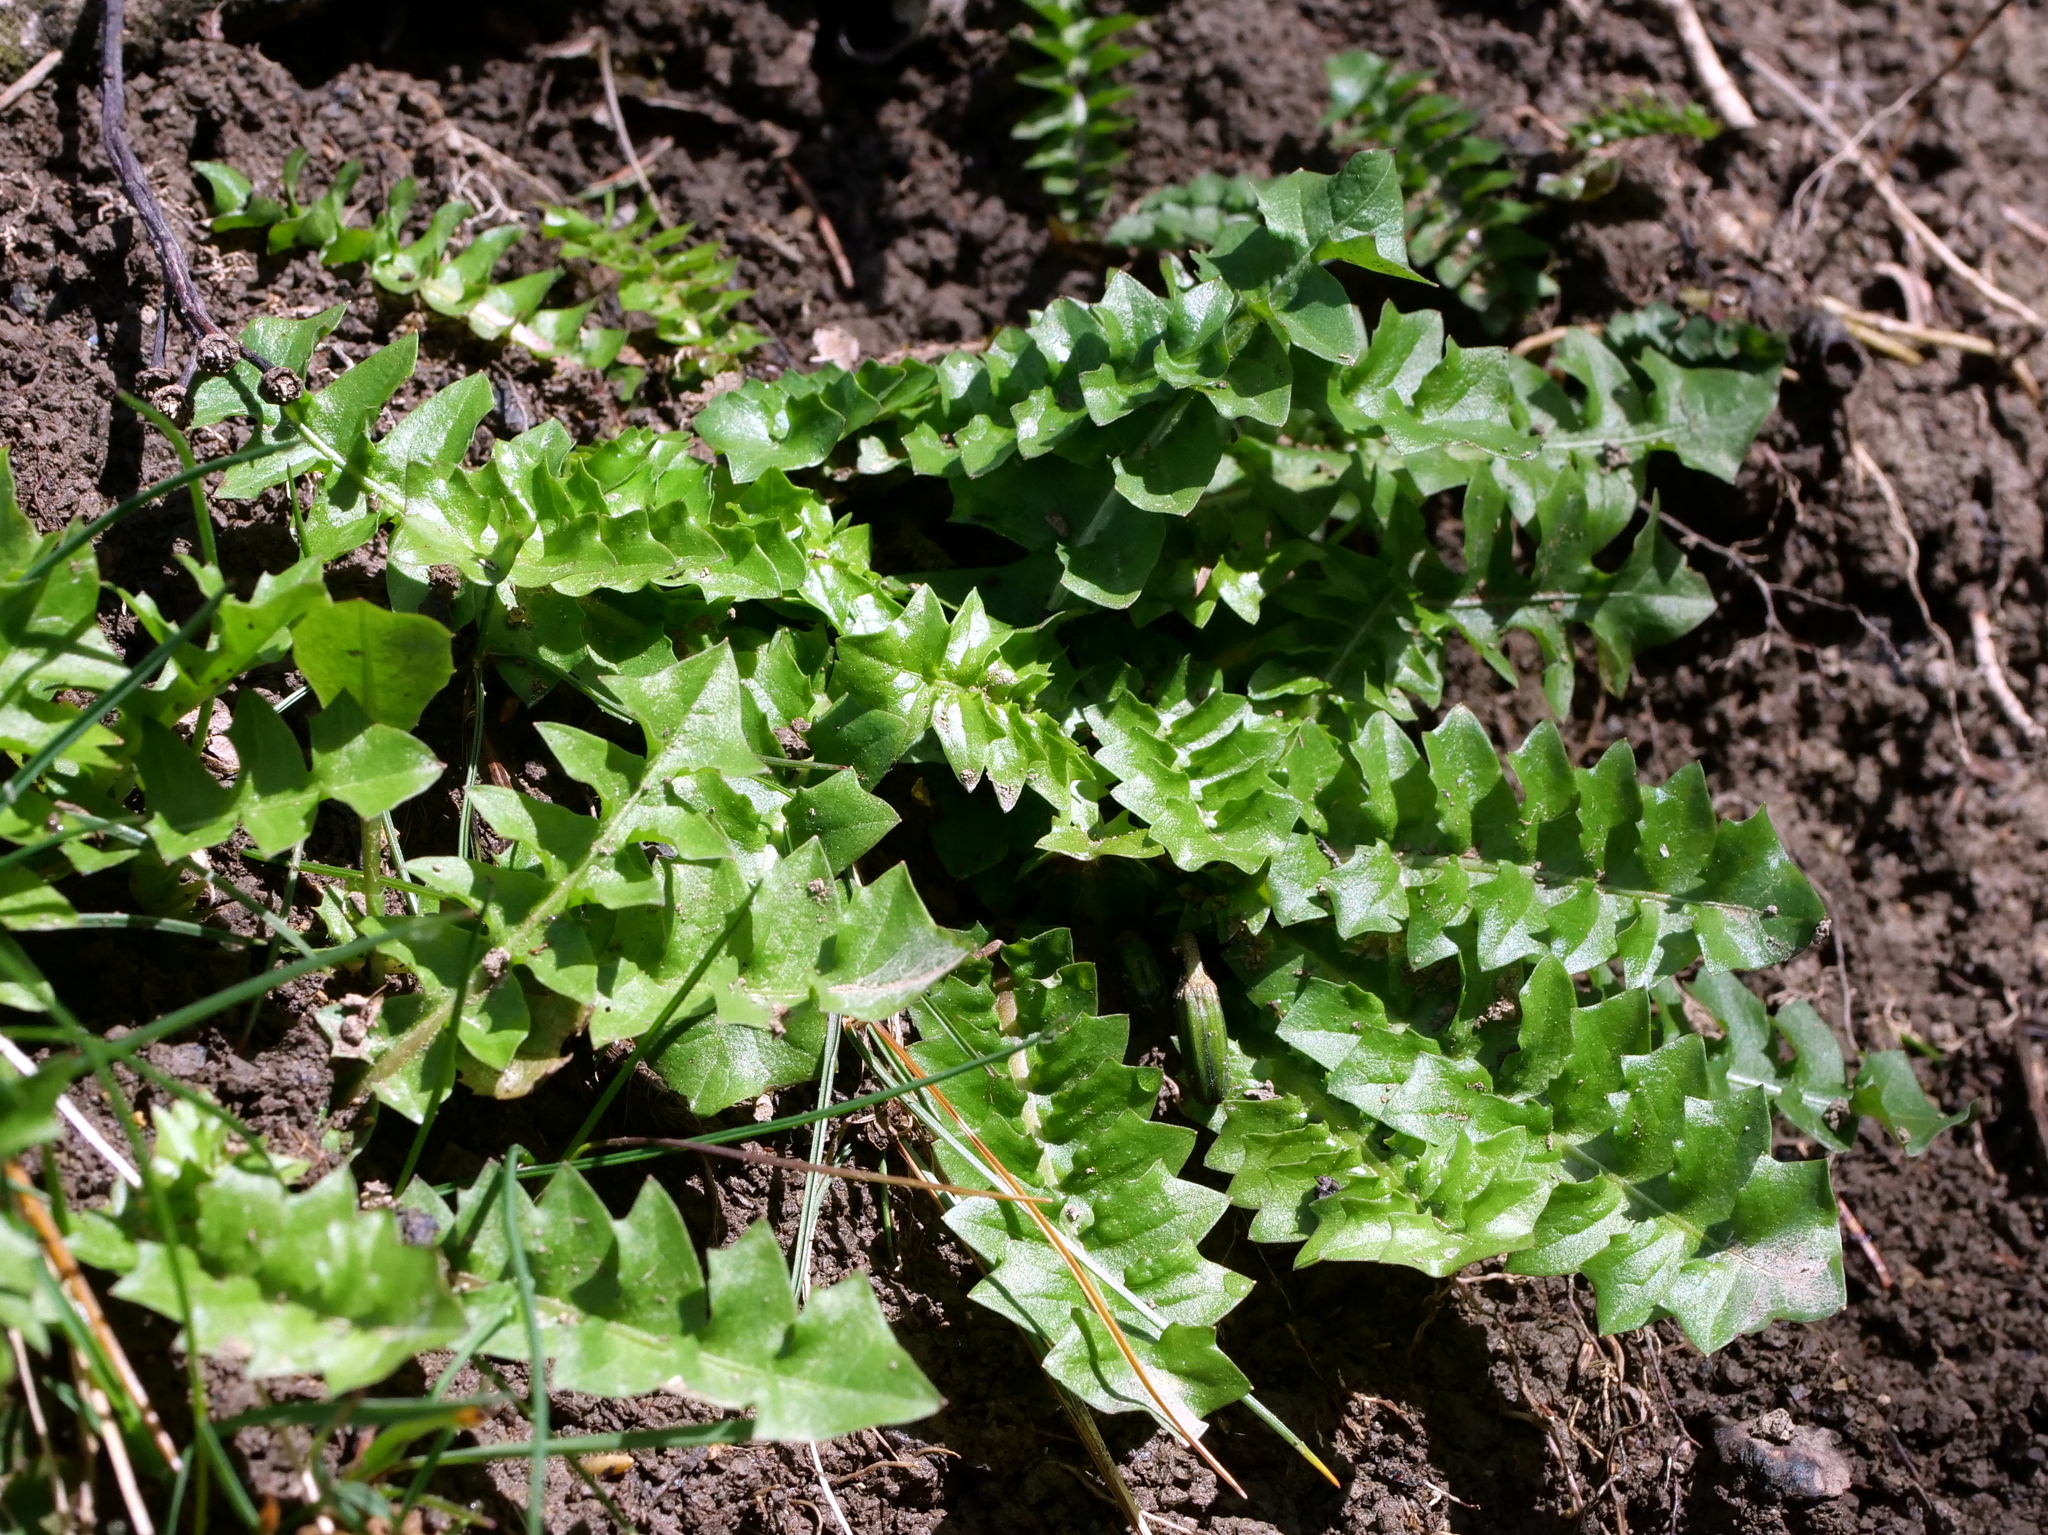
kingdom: Plantae
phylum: Tracheophyta
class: Magnoliopsida
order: Asterales
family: Asteraceae
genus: Aposeris
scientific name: Aposeris foetida
